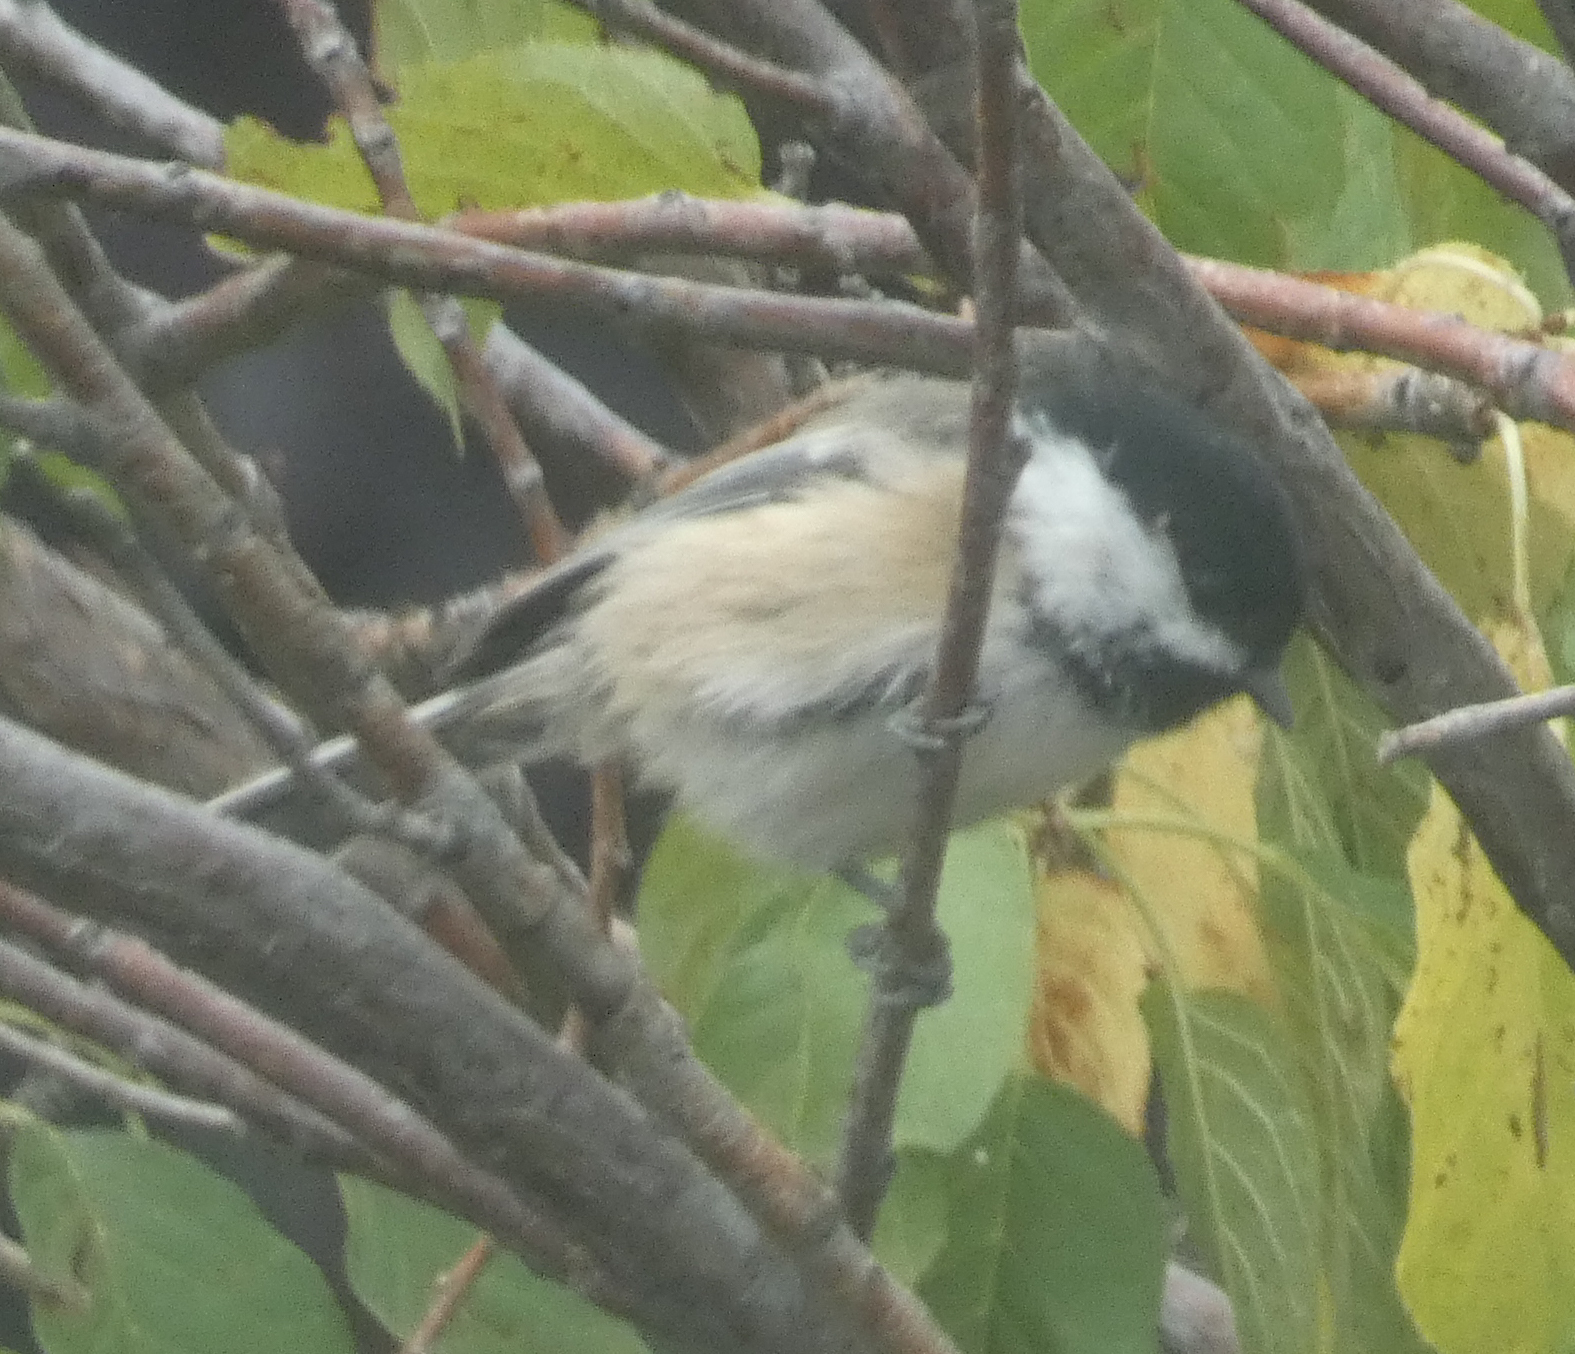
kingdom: Animalia
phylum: Chordata
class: Aves
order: Passeriformes
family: Paridae
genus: Poecile
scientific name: Poecile atricapillus
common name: Black-capped chickadee
